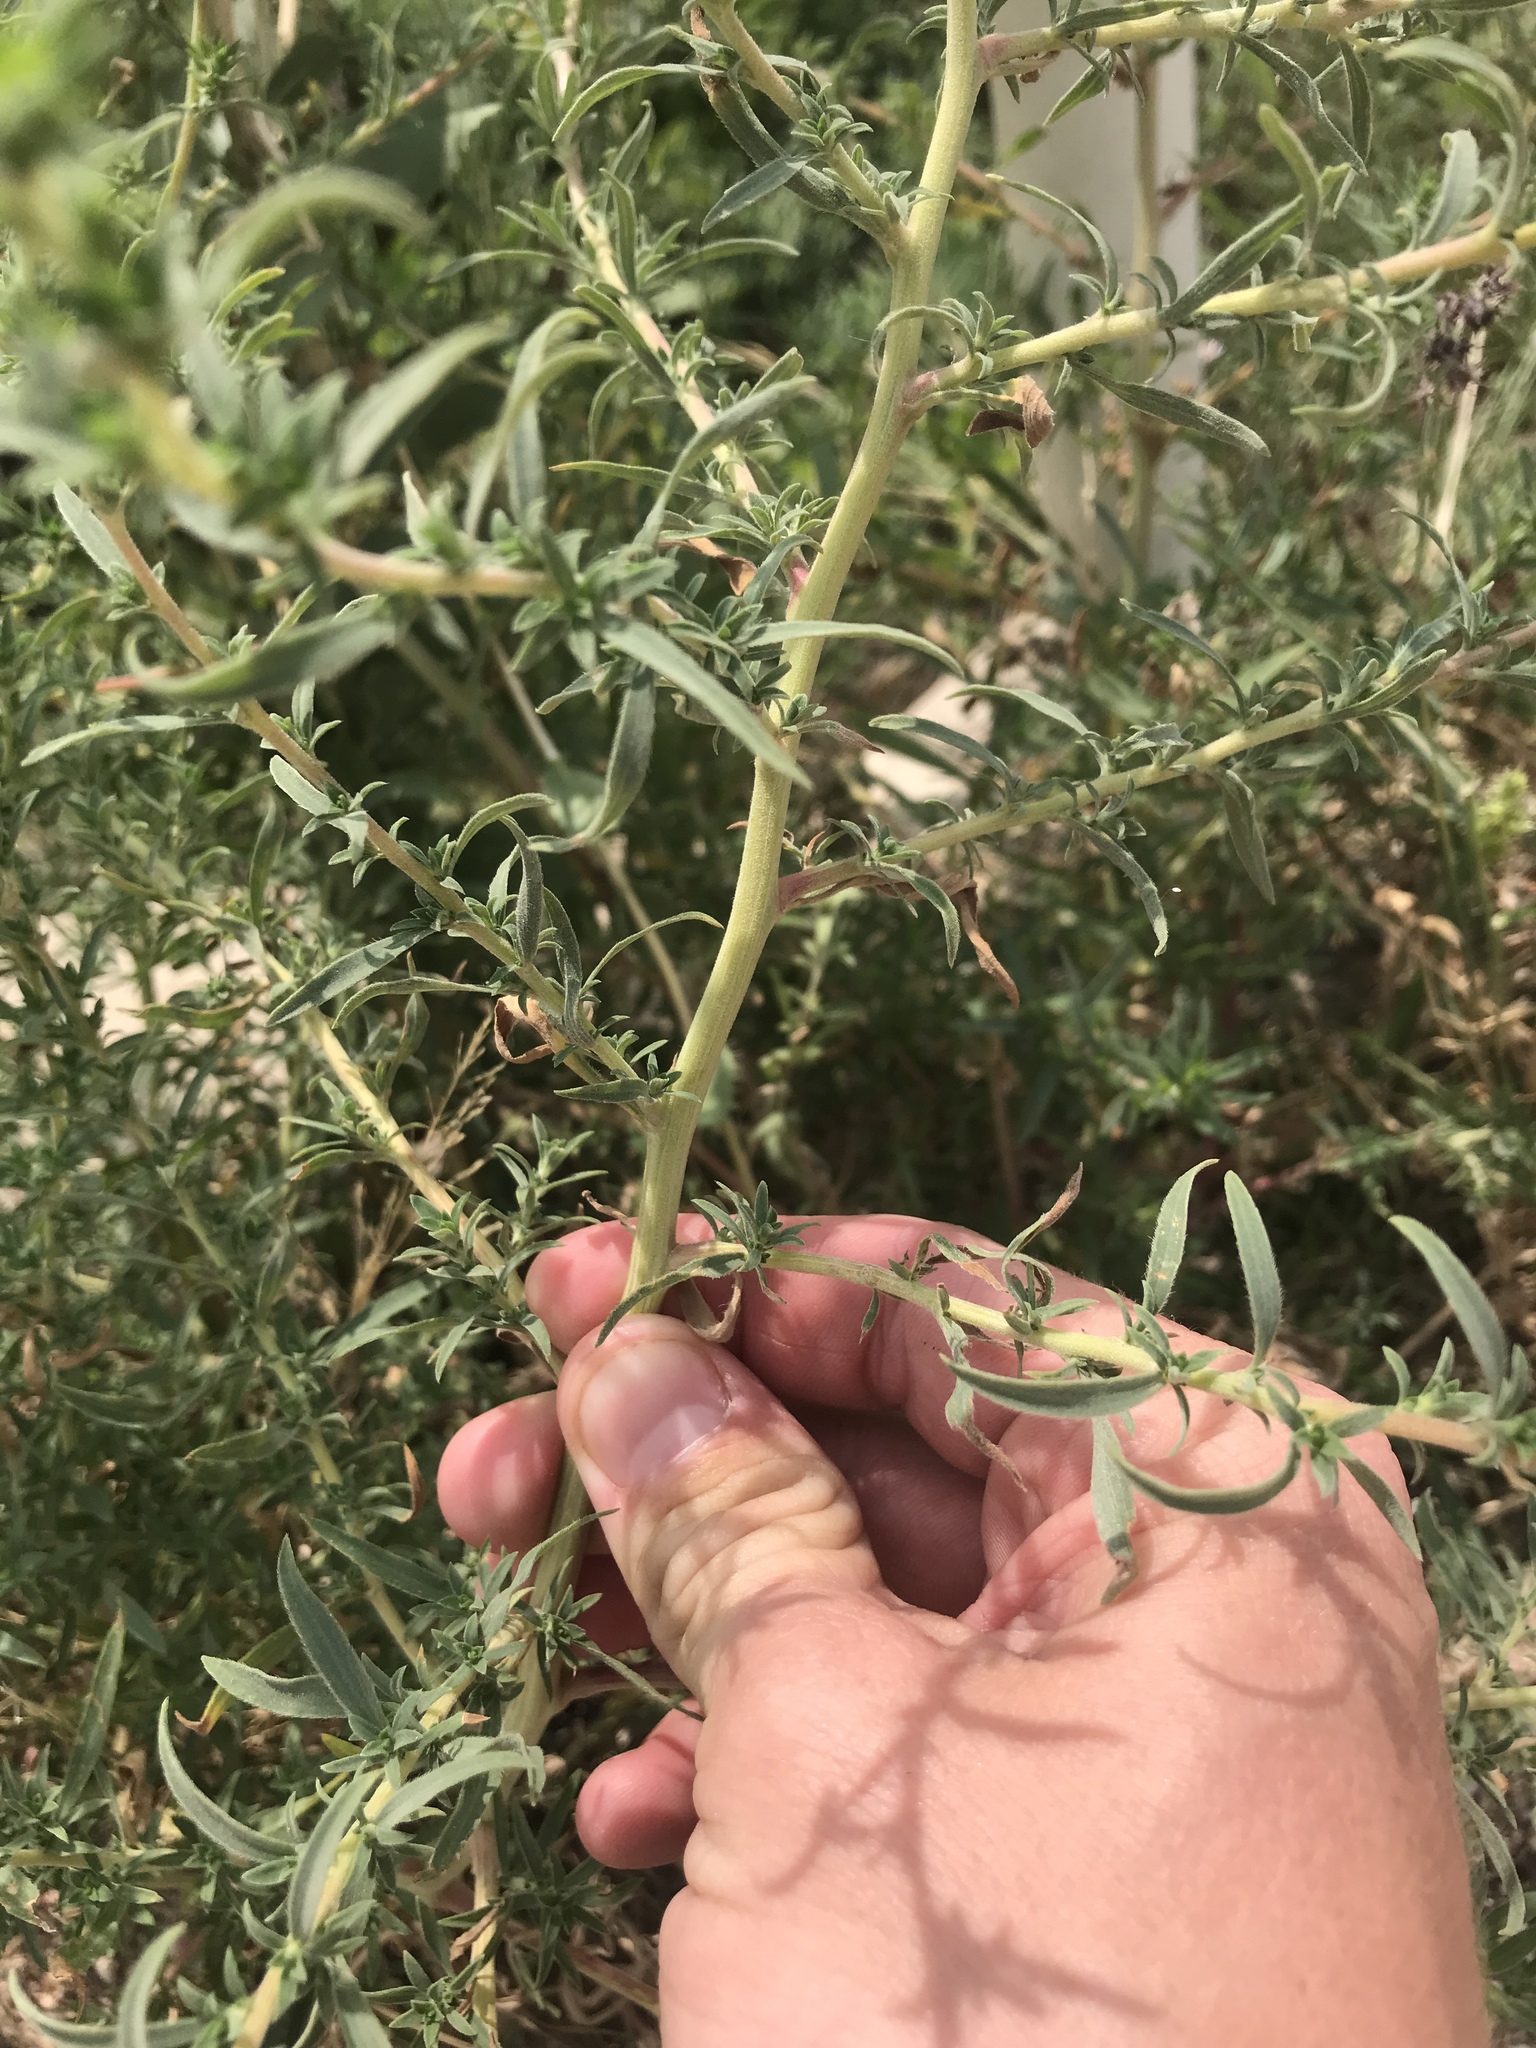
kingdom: Plantae
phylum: Tracheophyta
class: Magnoliopsida
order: Caryophyllales
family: Amaranthaceae
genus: Bassia
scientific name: Bassia scoparia
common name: Belvedere
